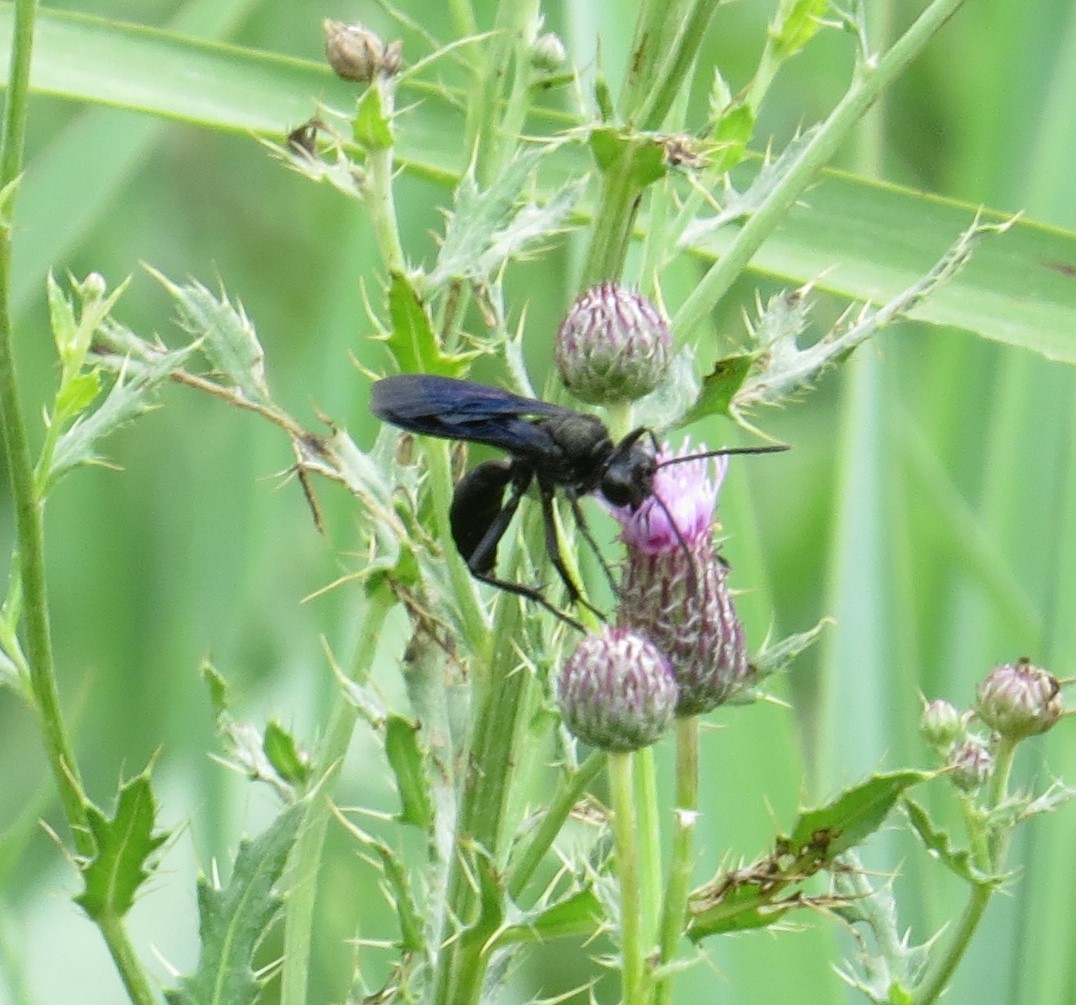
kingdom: Animalia
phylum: Arthropoda
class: Insecta
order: Hymenoptera
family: Sphecidae
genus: Sphex
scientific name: Sphex pensylvanicus
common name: Great black digger wasp
